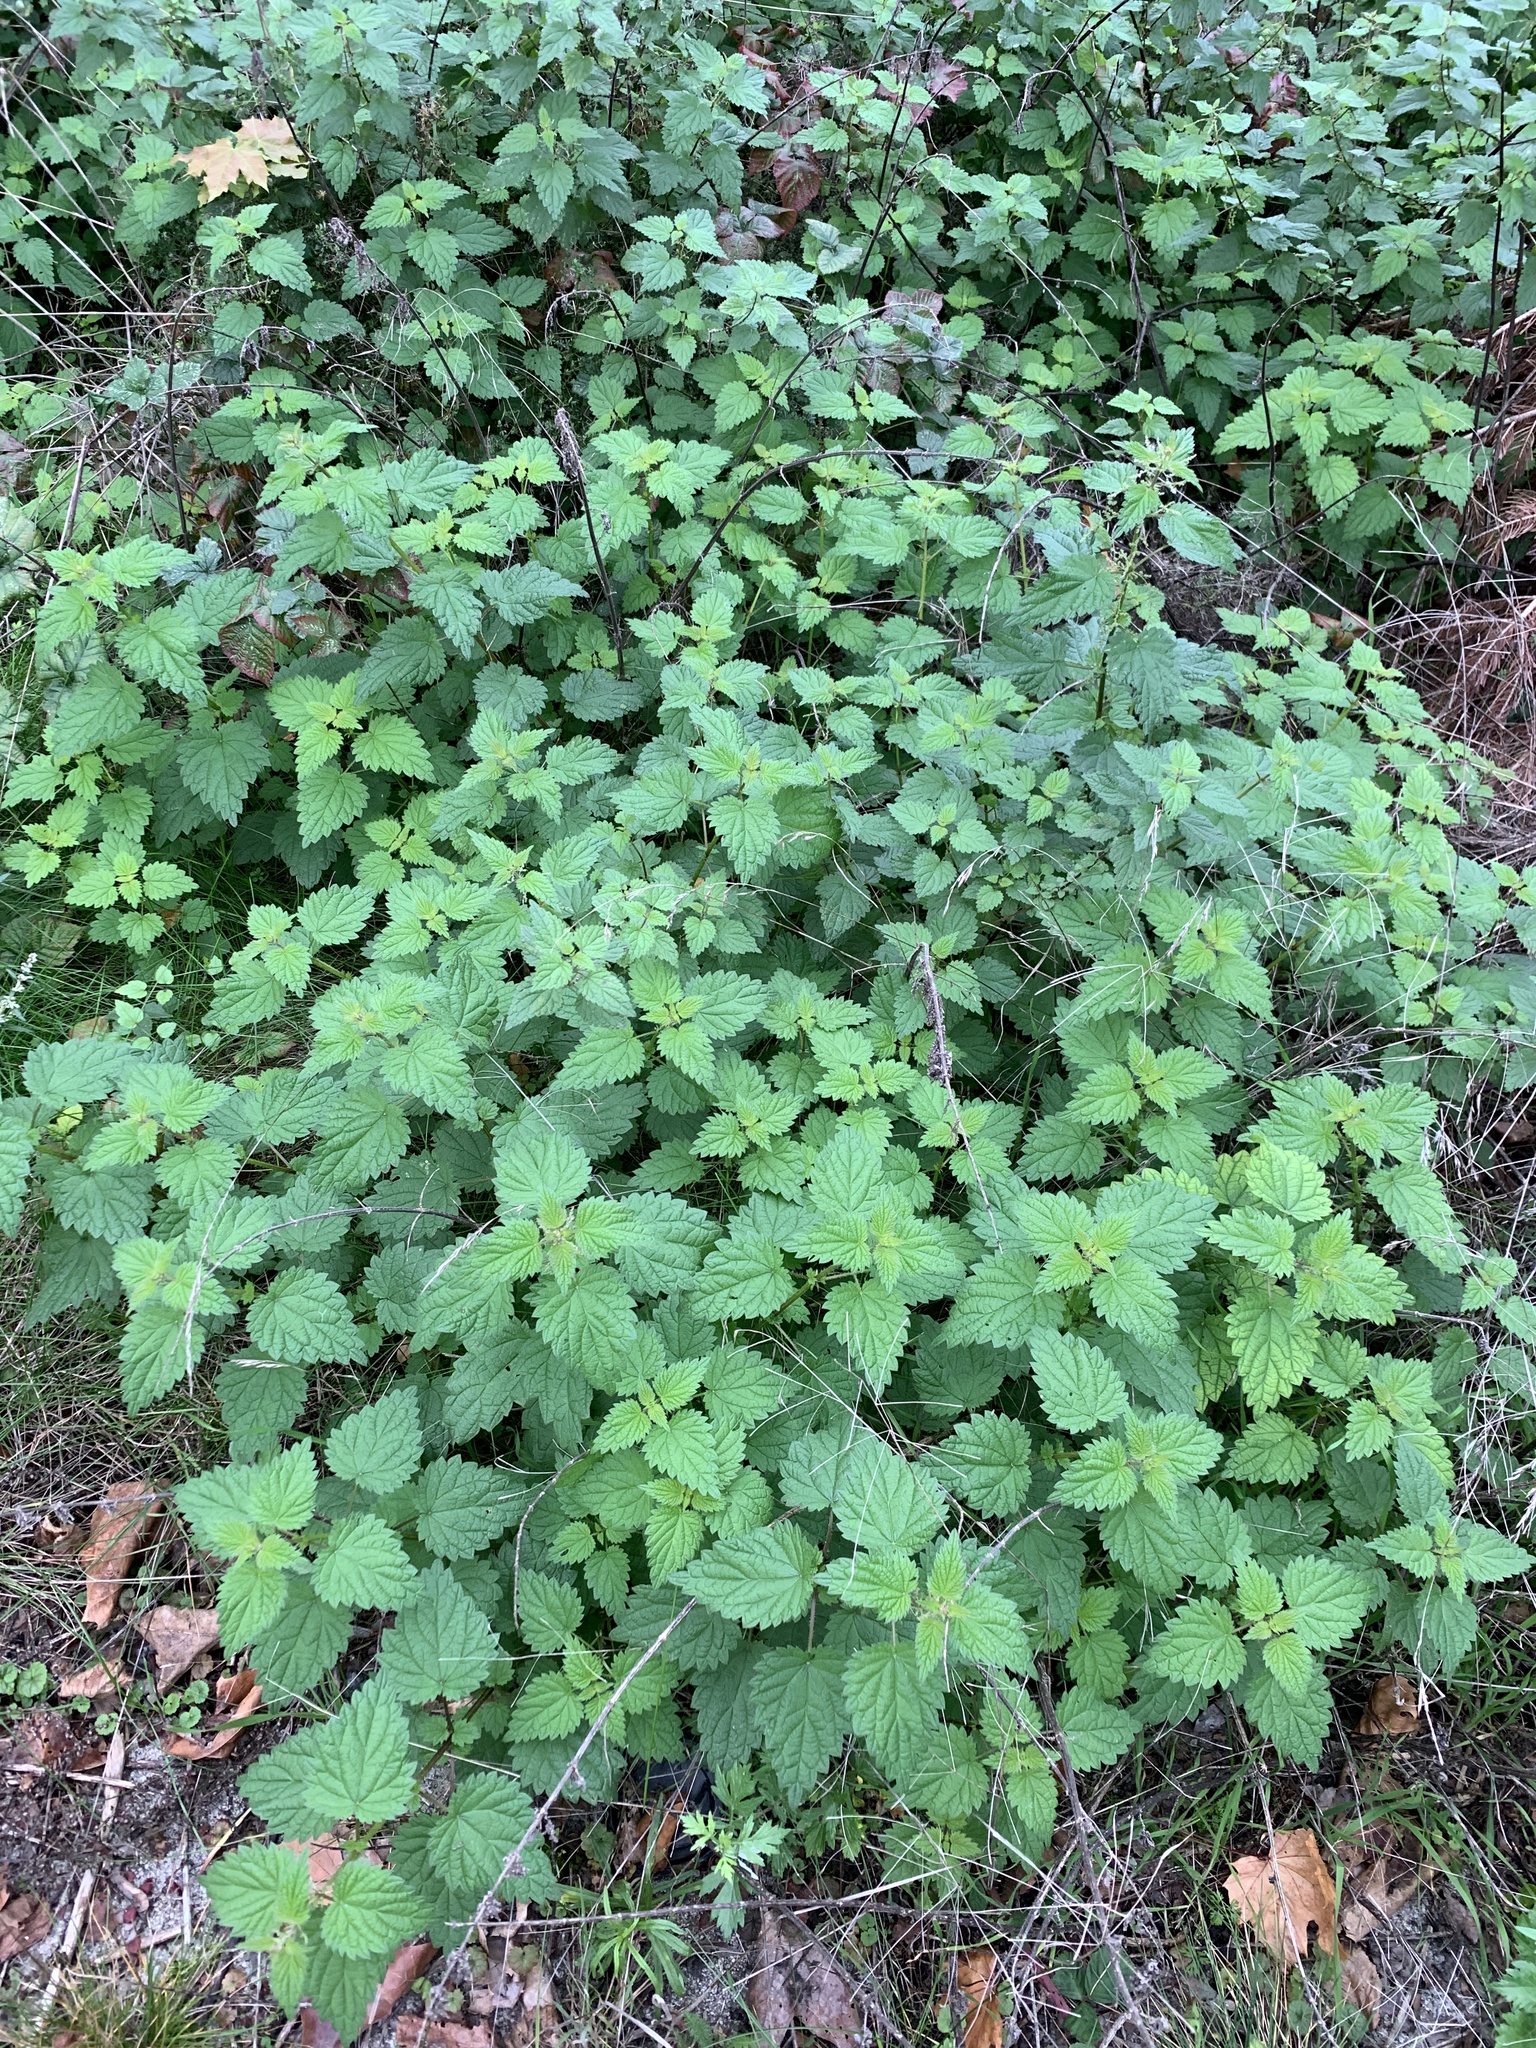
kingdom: Plantae
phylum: Tracheophyta
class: Magnoliopsida
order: Rosales
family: Urticaceae
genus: Urtica
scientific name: Urtica dioica
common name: Common nettle
